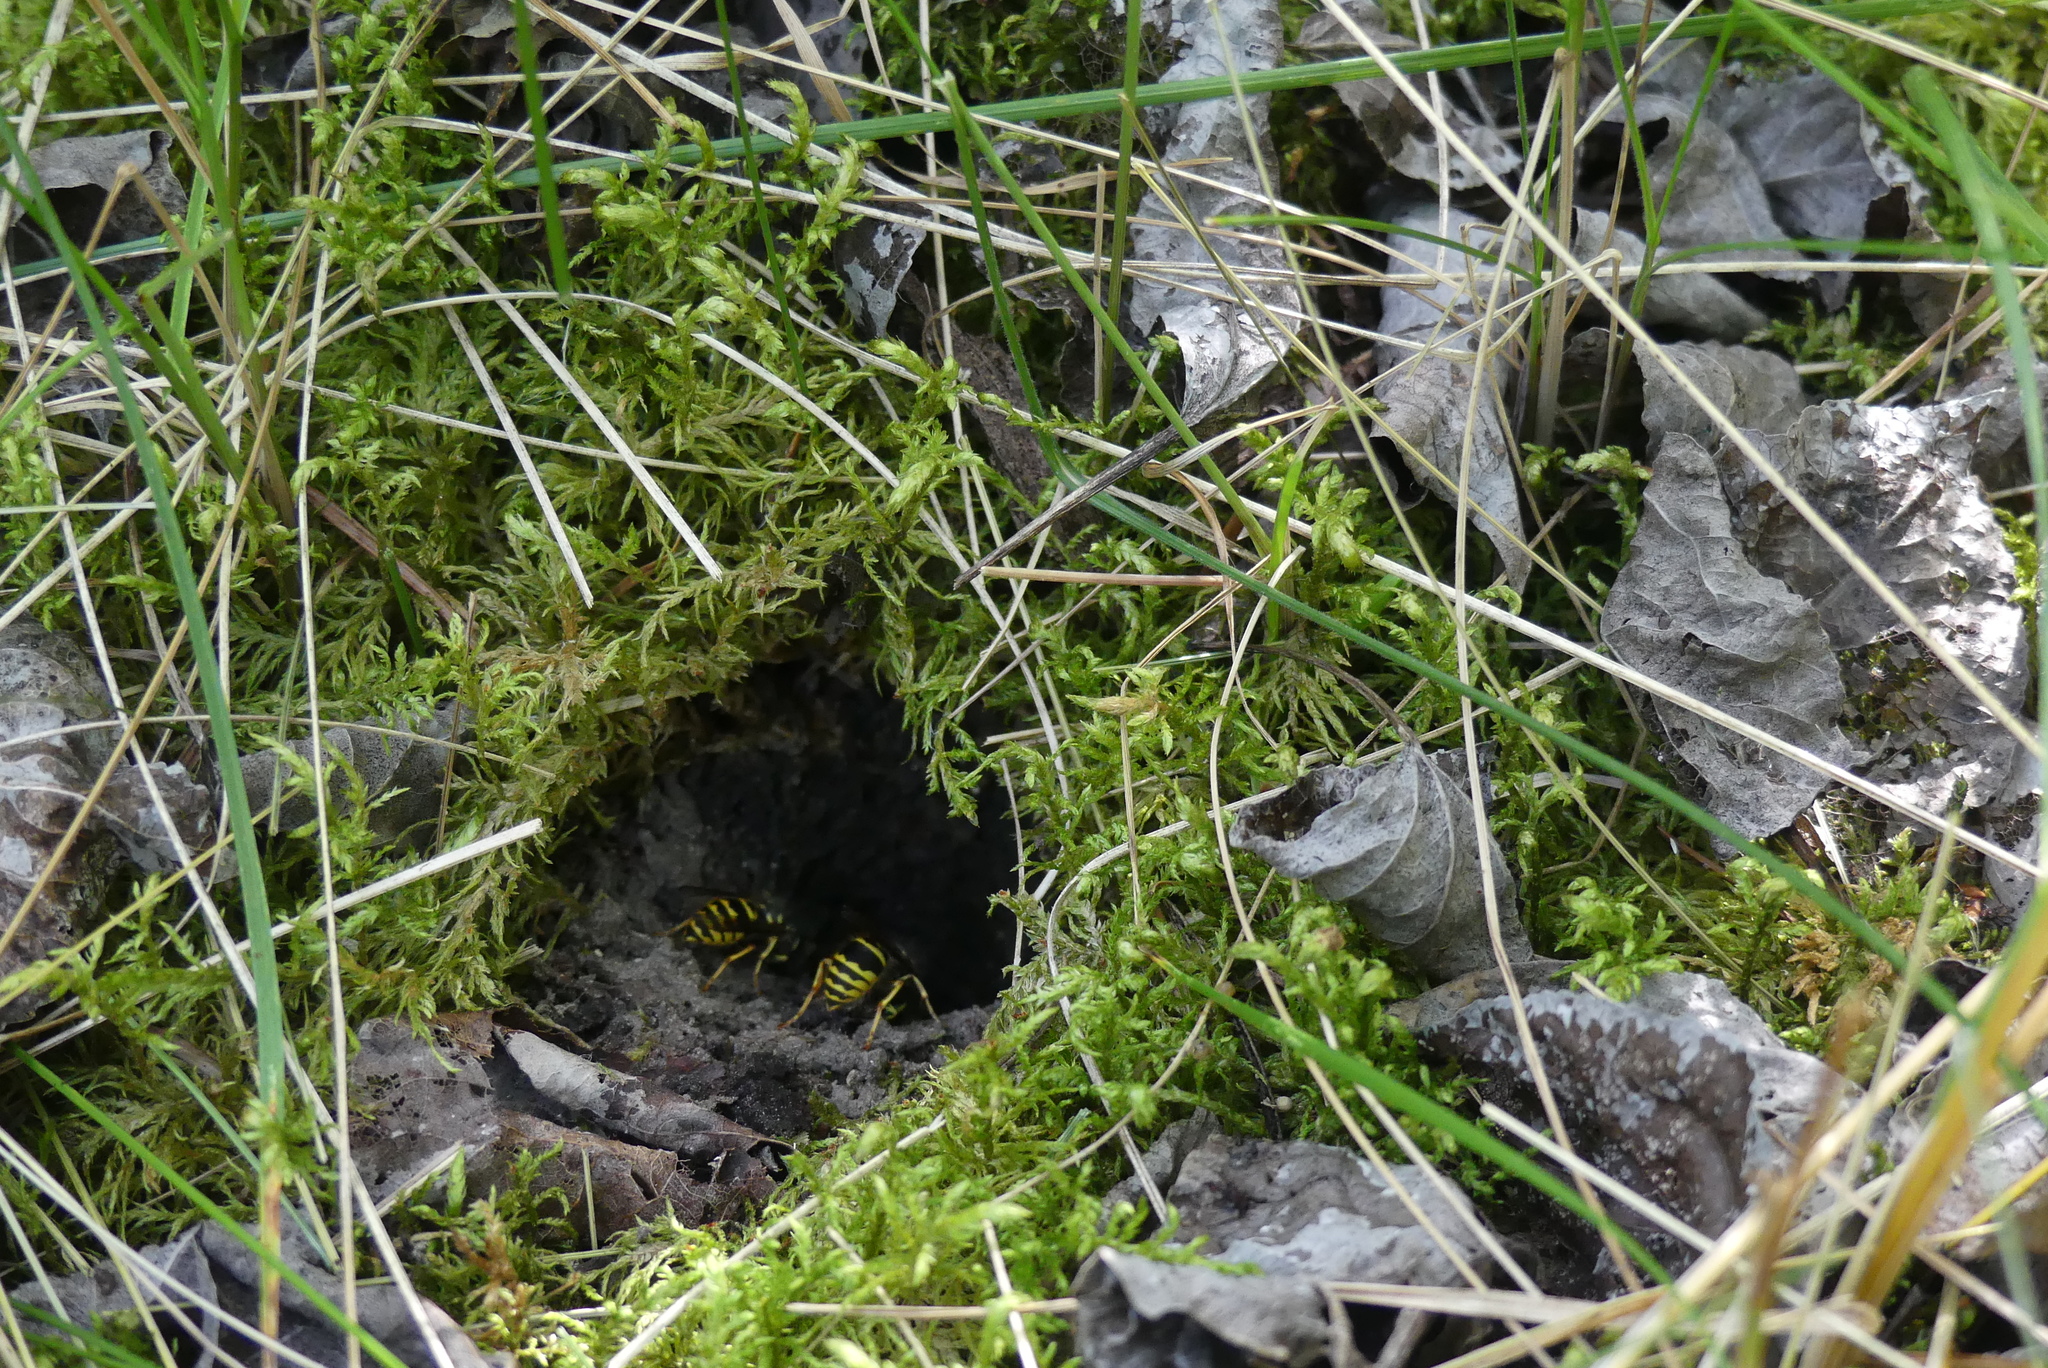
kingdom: Animalia
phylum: Arthropoda
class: Insecta
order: Hymenoptera
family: Vespidae
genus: Vespula
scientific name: Vespula alascensis
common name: Alaska yellowjacket
